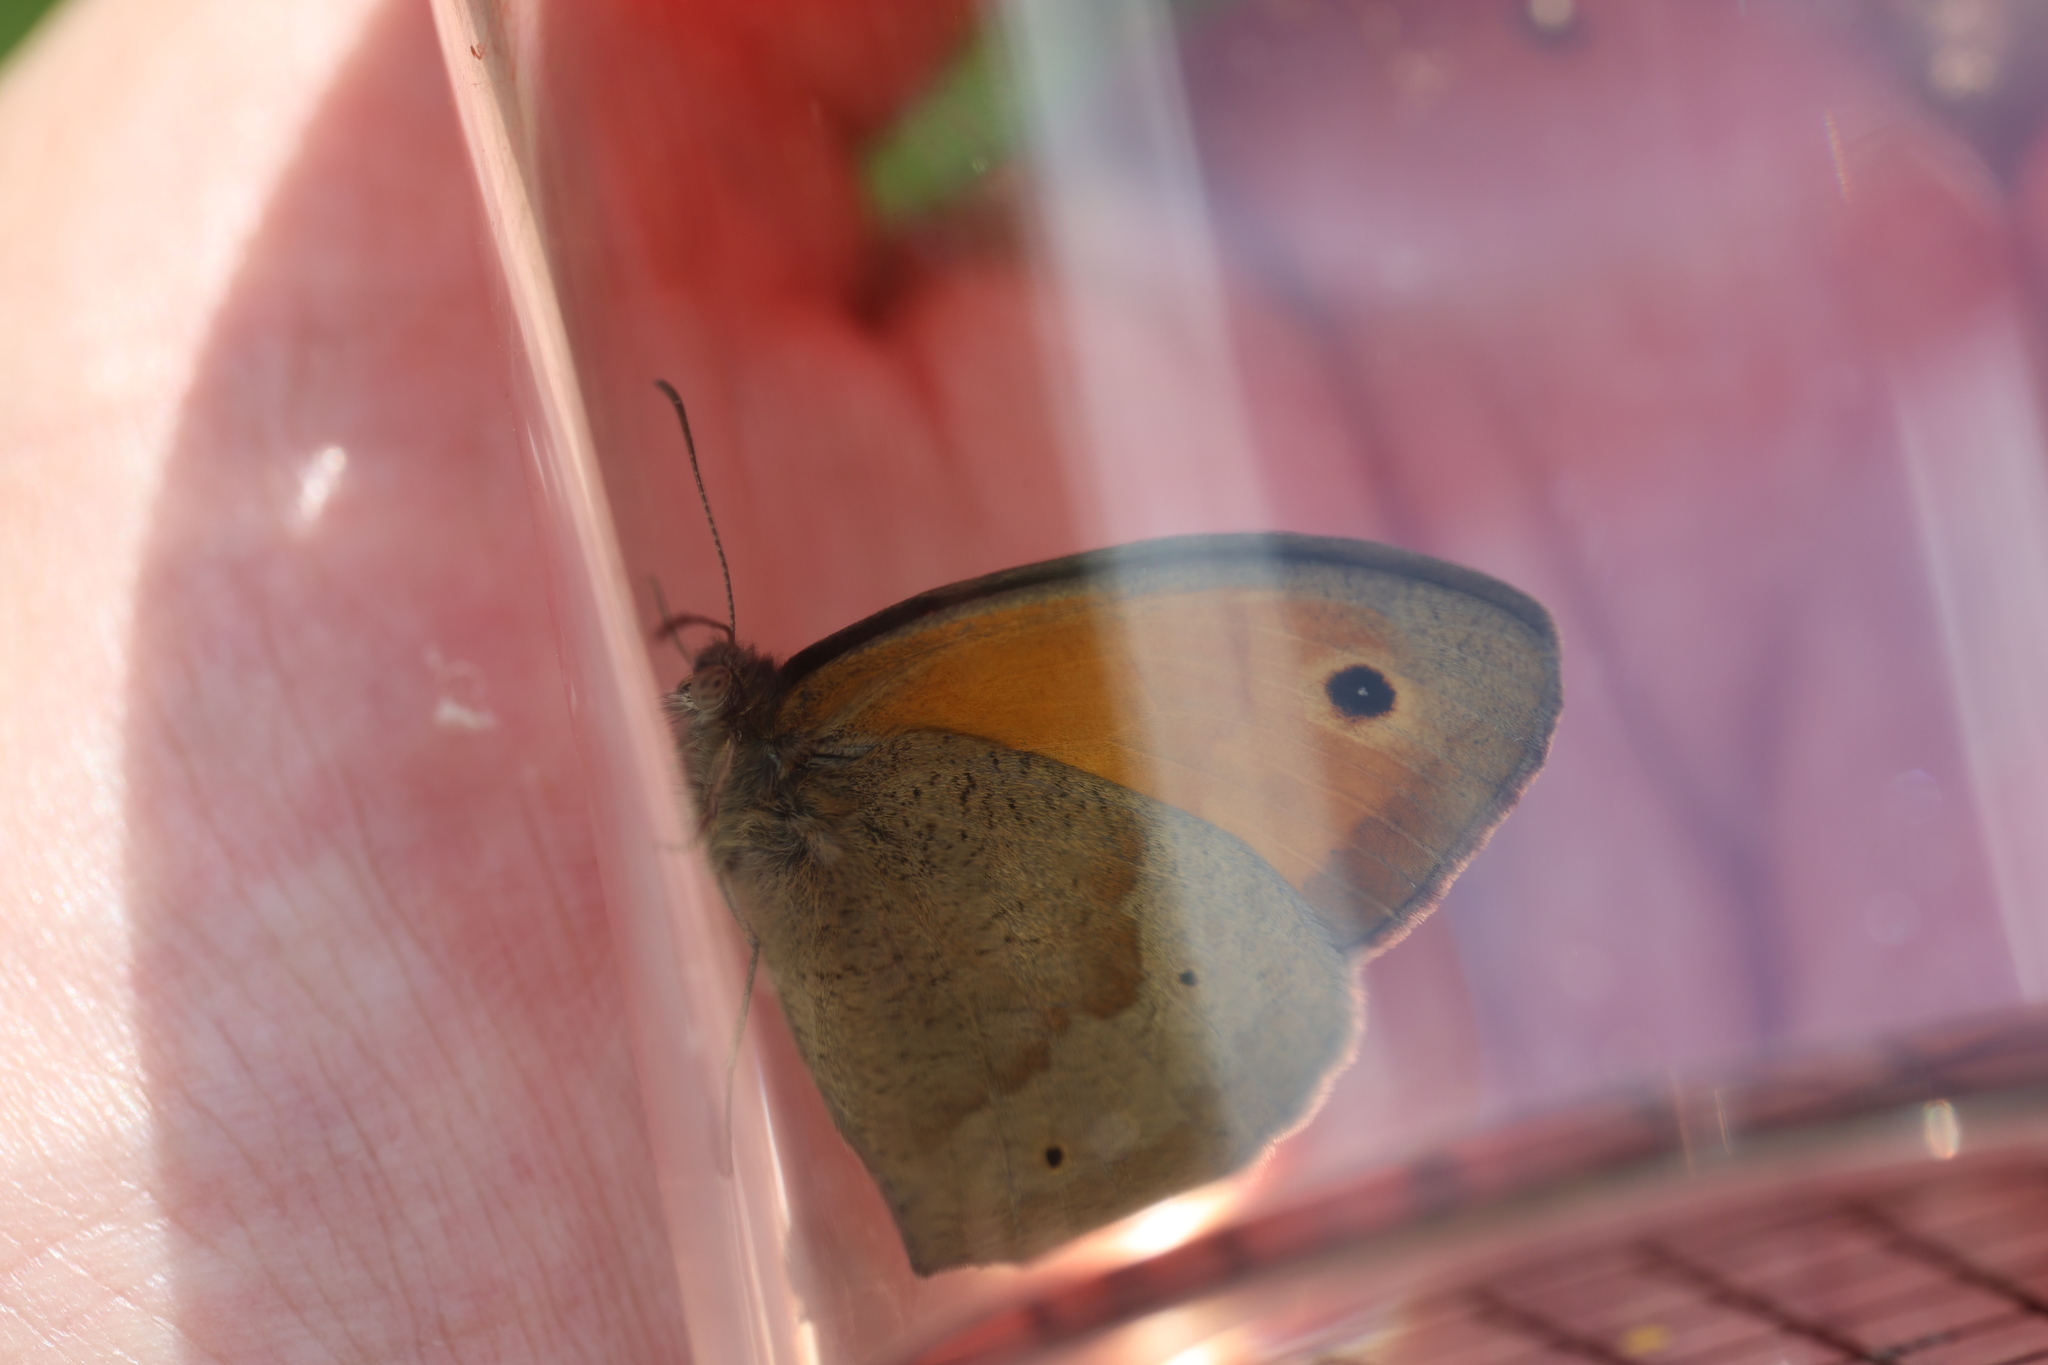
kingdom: Animalia
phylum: Arthropoda
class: Insecta
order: Lepidoptera
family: Nymphalidae
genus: Maniola
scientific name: Maniola jurtina
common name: Meadow brown
